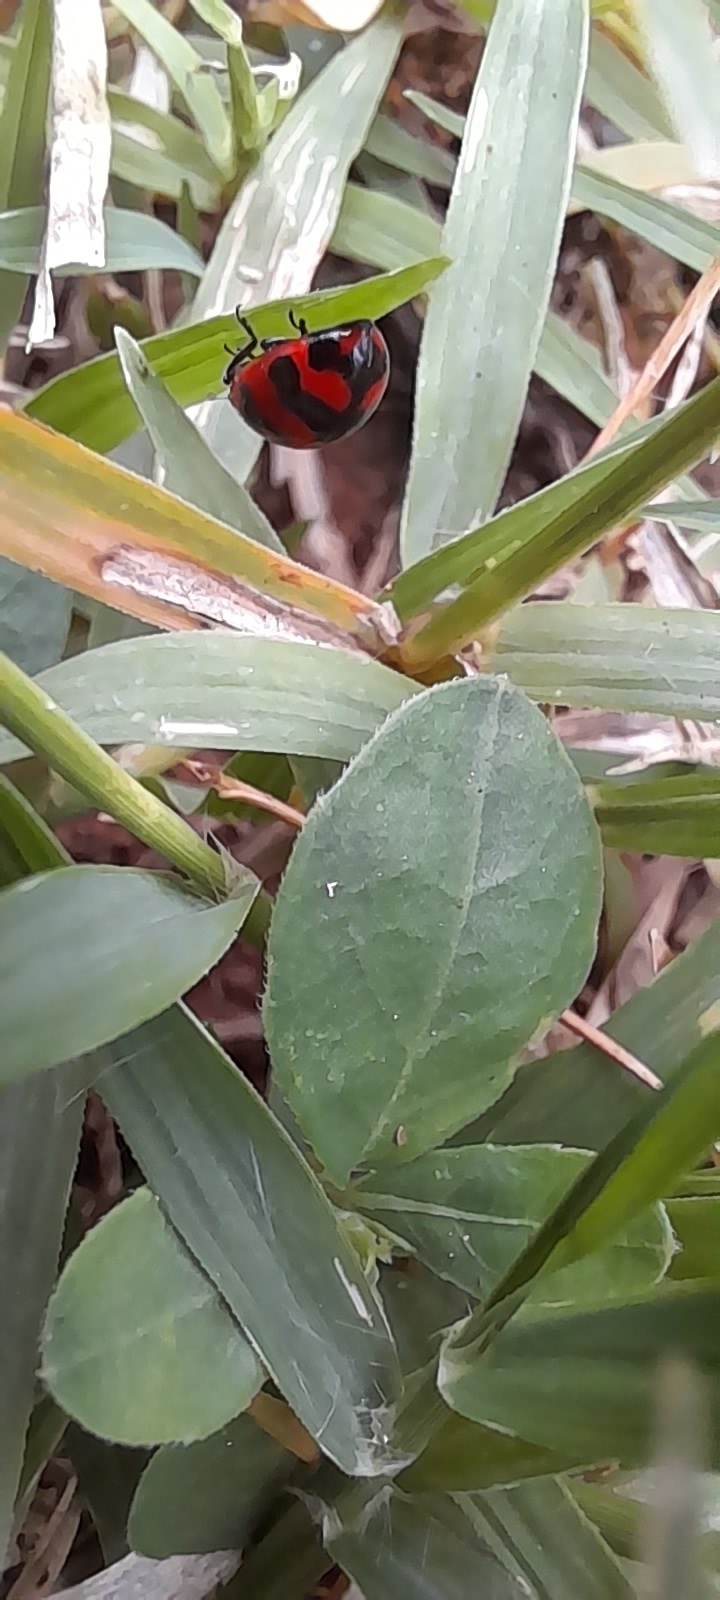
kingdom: Animalia
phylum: Arthropoda
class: Insecta
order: Coleoptera
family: Coccinellidae
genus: Coccinella
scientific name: Coccinella transversalis
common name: Transverse lady beetle
